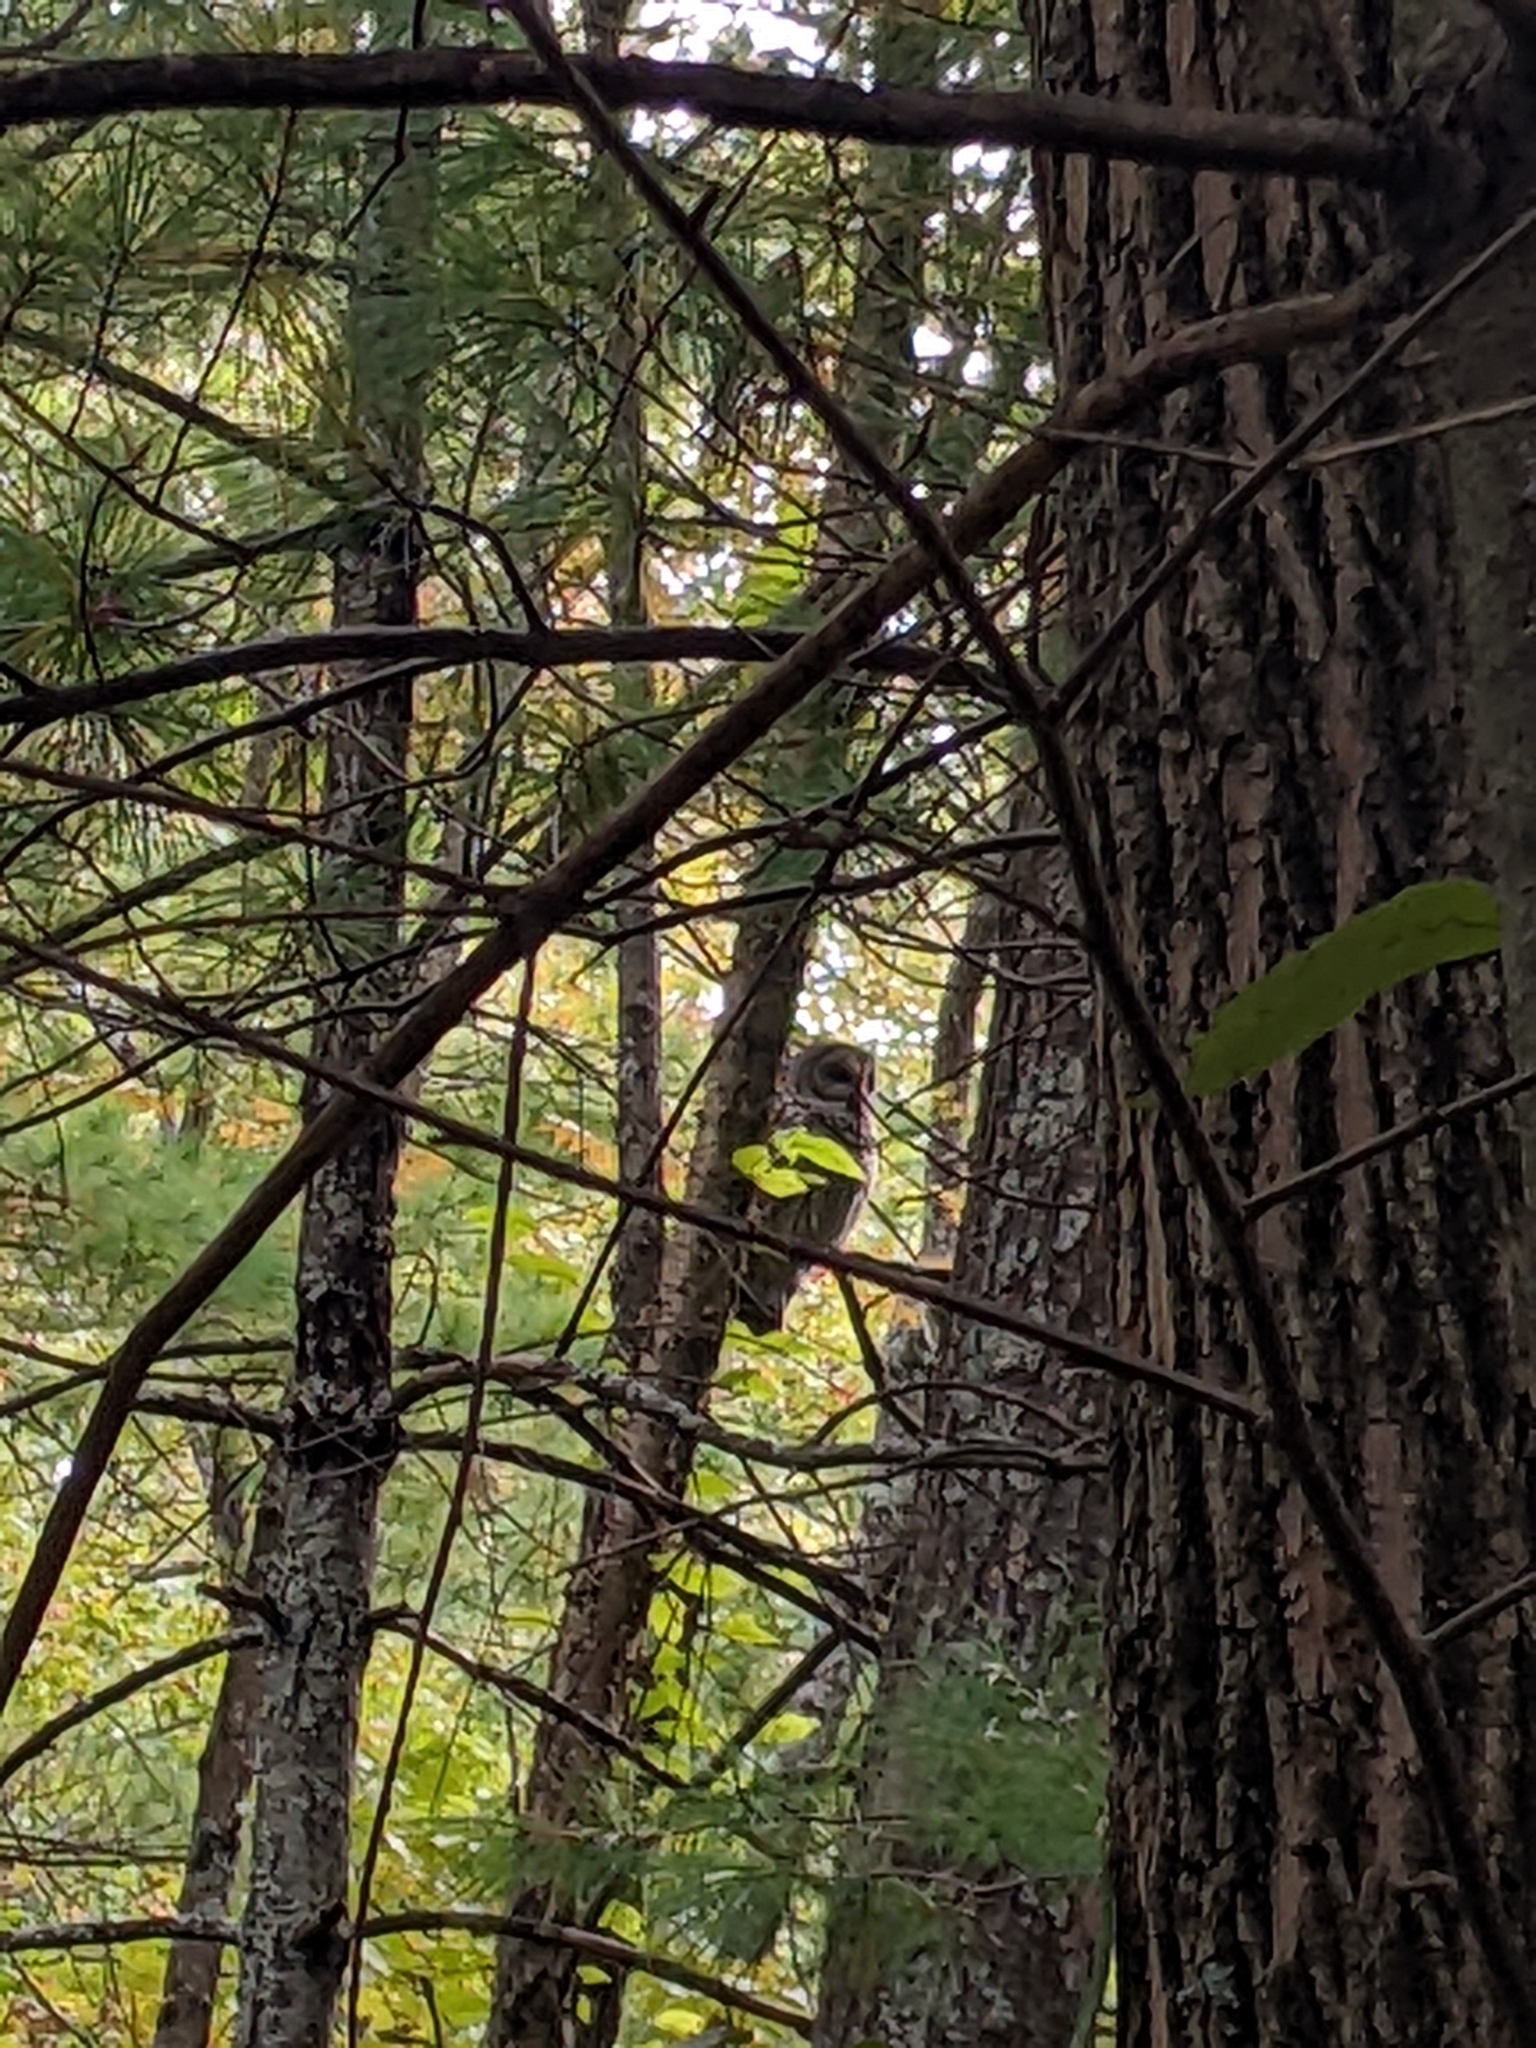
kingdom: Animalia
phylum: Chordata
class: Aves
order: Strigiformes
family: Strigidae
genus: Strix
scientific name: Strix varia
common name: Barred owl
